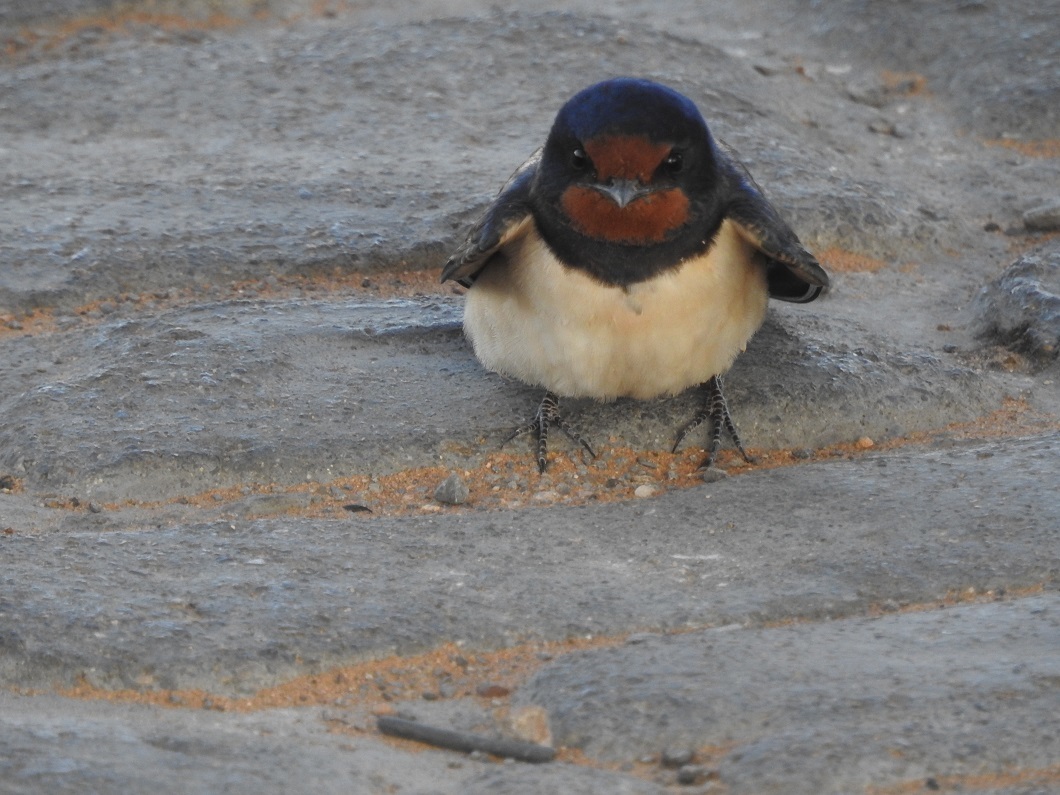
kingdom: Animalia
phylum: Chordata
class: Aves
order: Passeriformes
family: Hirundinidae
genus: Hirundo
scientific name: Hirundo rustica
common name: Barn swallow
